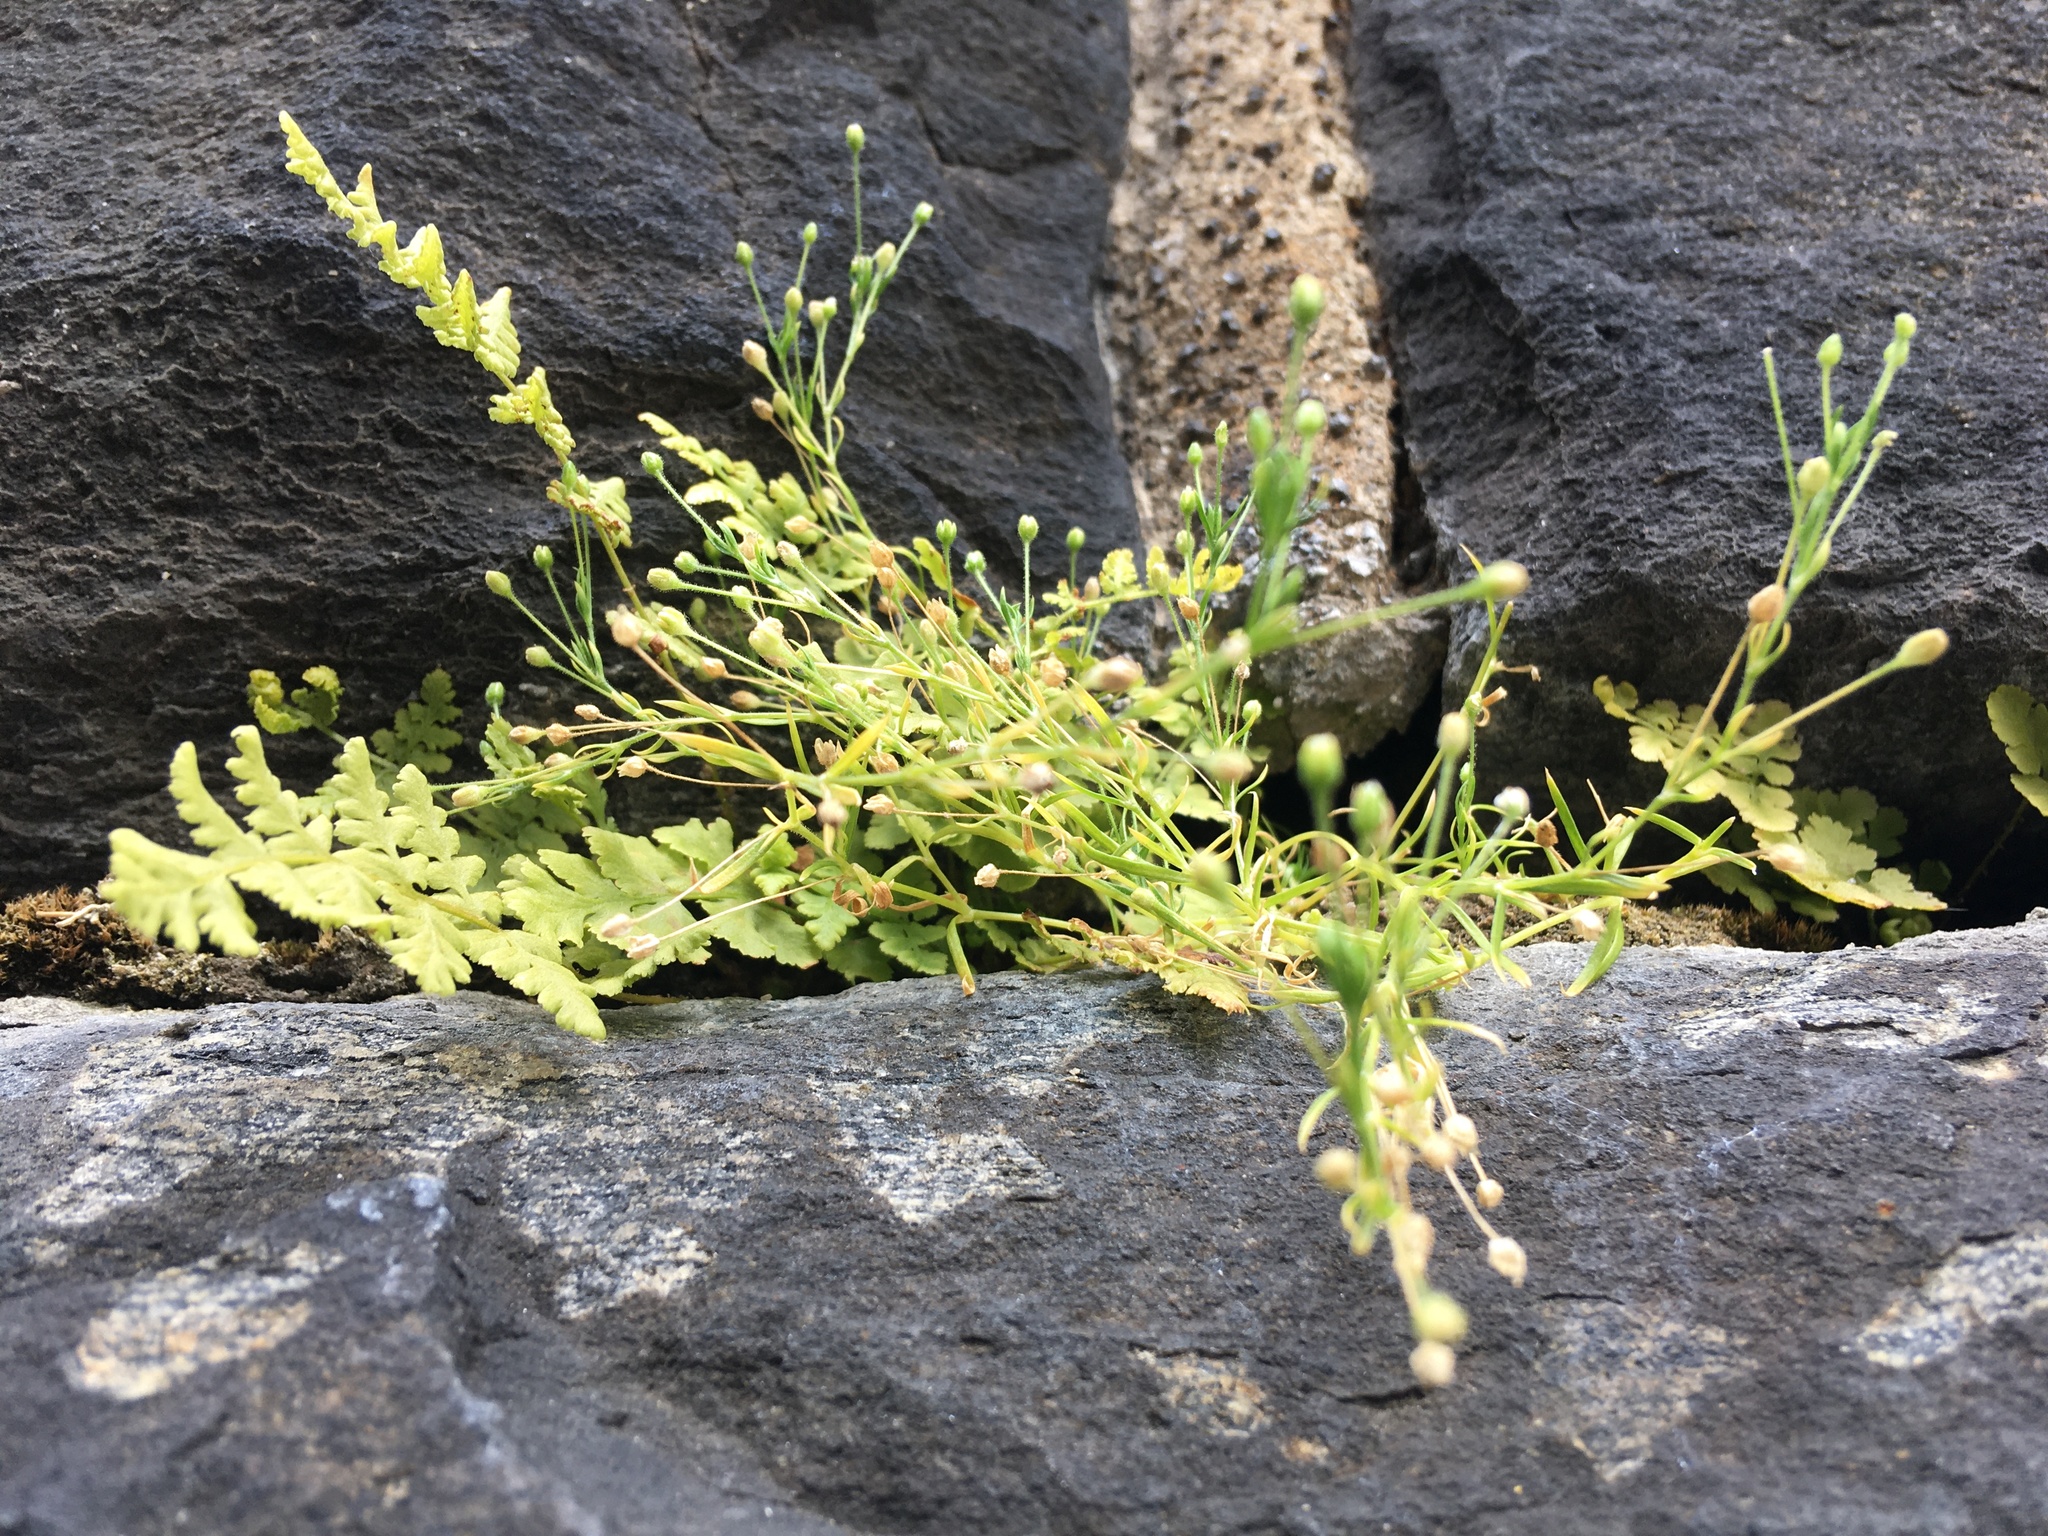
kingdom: Plantae
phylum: Tracheophyta
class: Magnoliopsida
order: Caryophyllales
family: Caryophyllaceae
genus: Sagina
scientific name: Sagina japonica
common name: Japanese pearlwort
